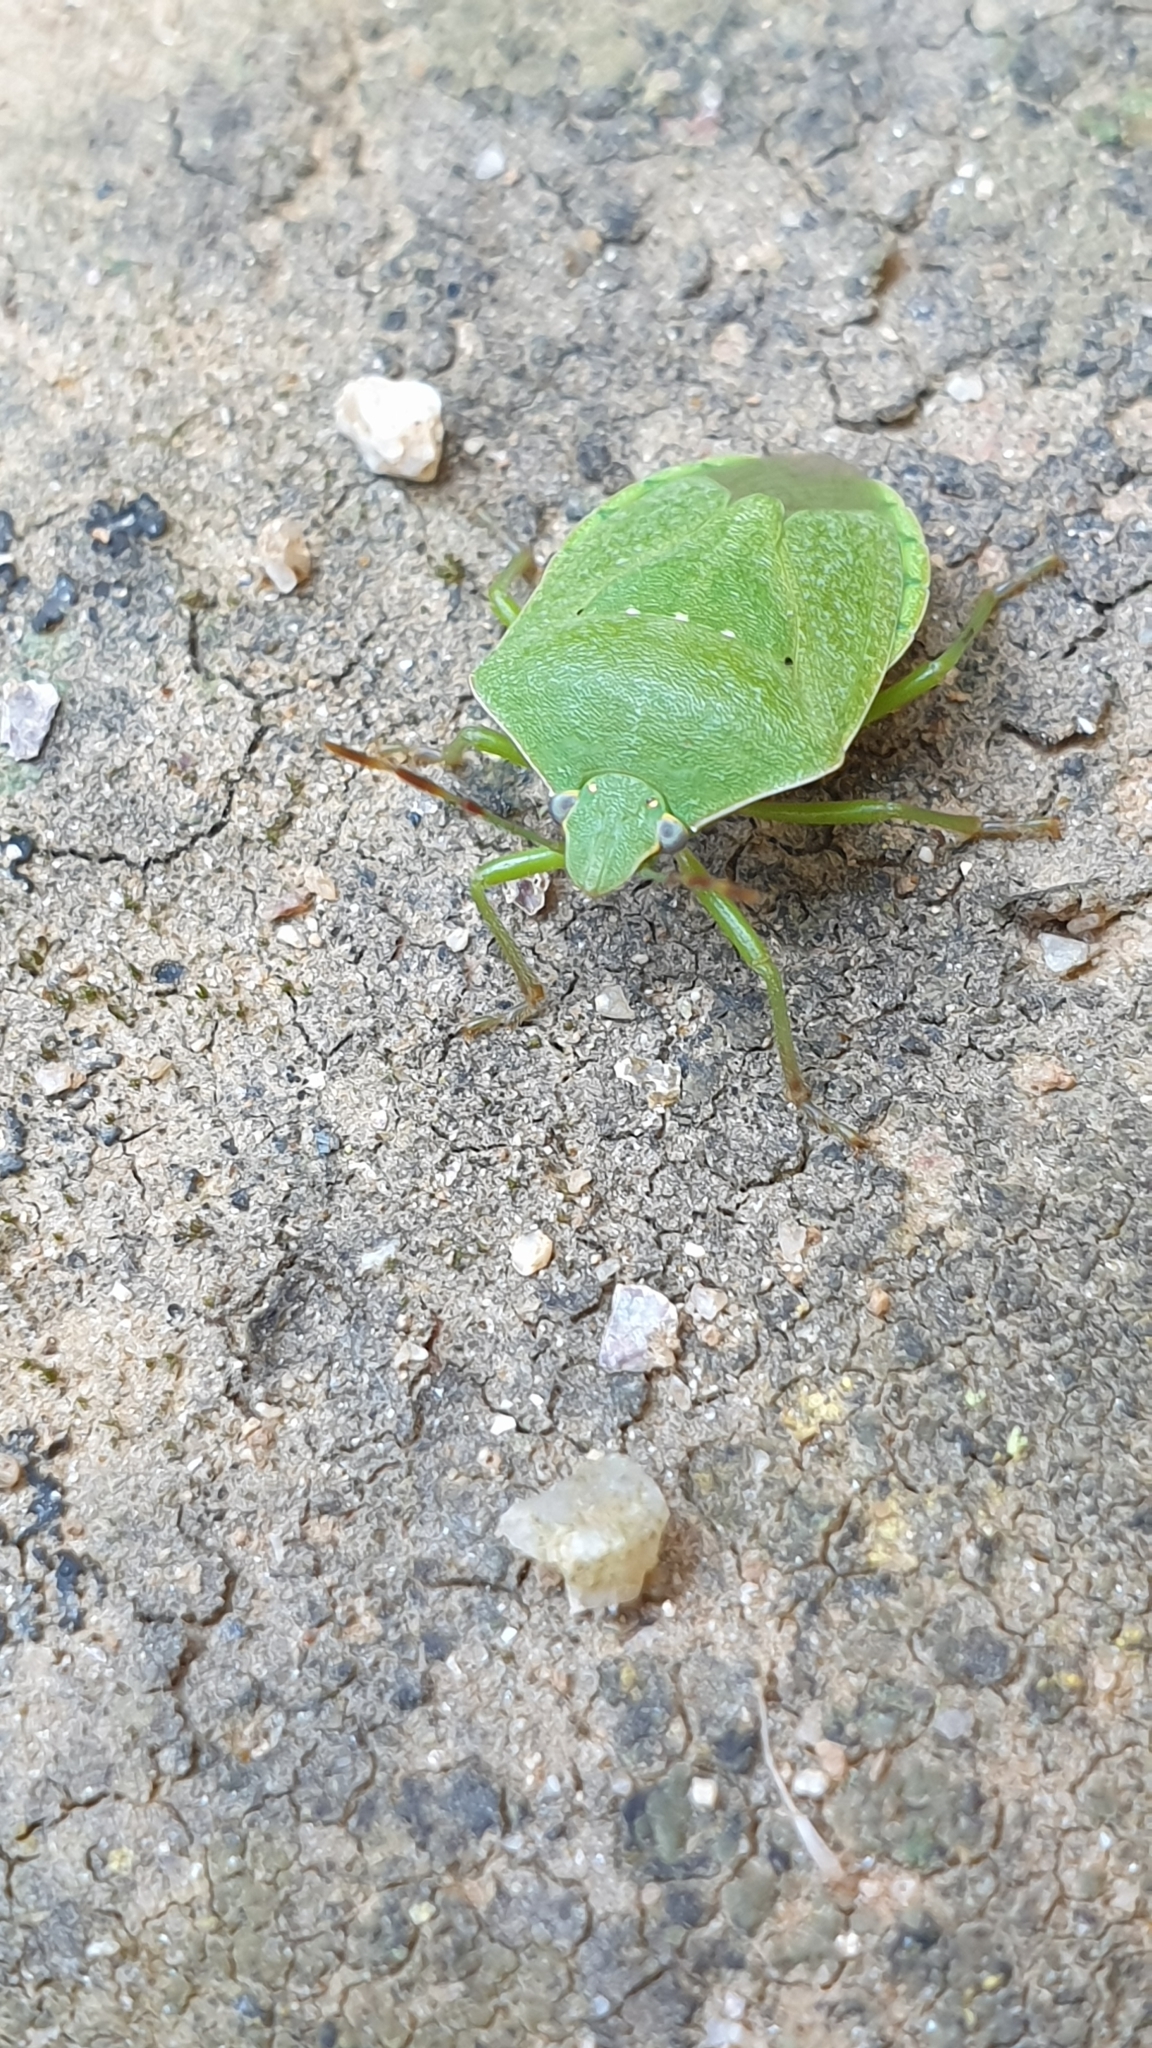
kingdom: Animalia
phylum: Arthropoda
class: Insecta
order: Hemiptera
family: Pentatomidae
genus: Nezara
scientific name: Nezara viridula
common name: Southern green stink bug
